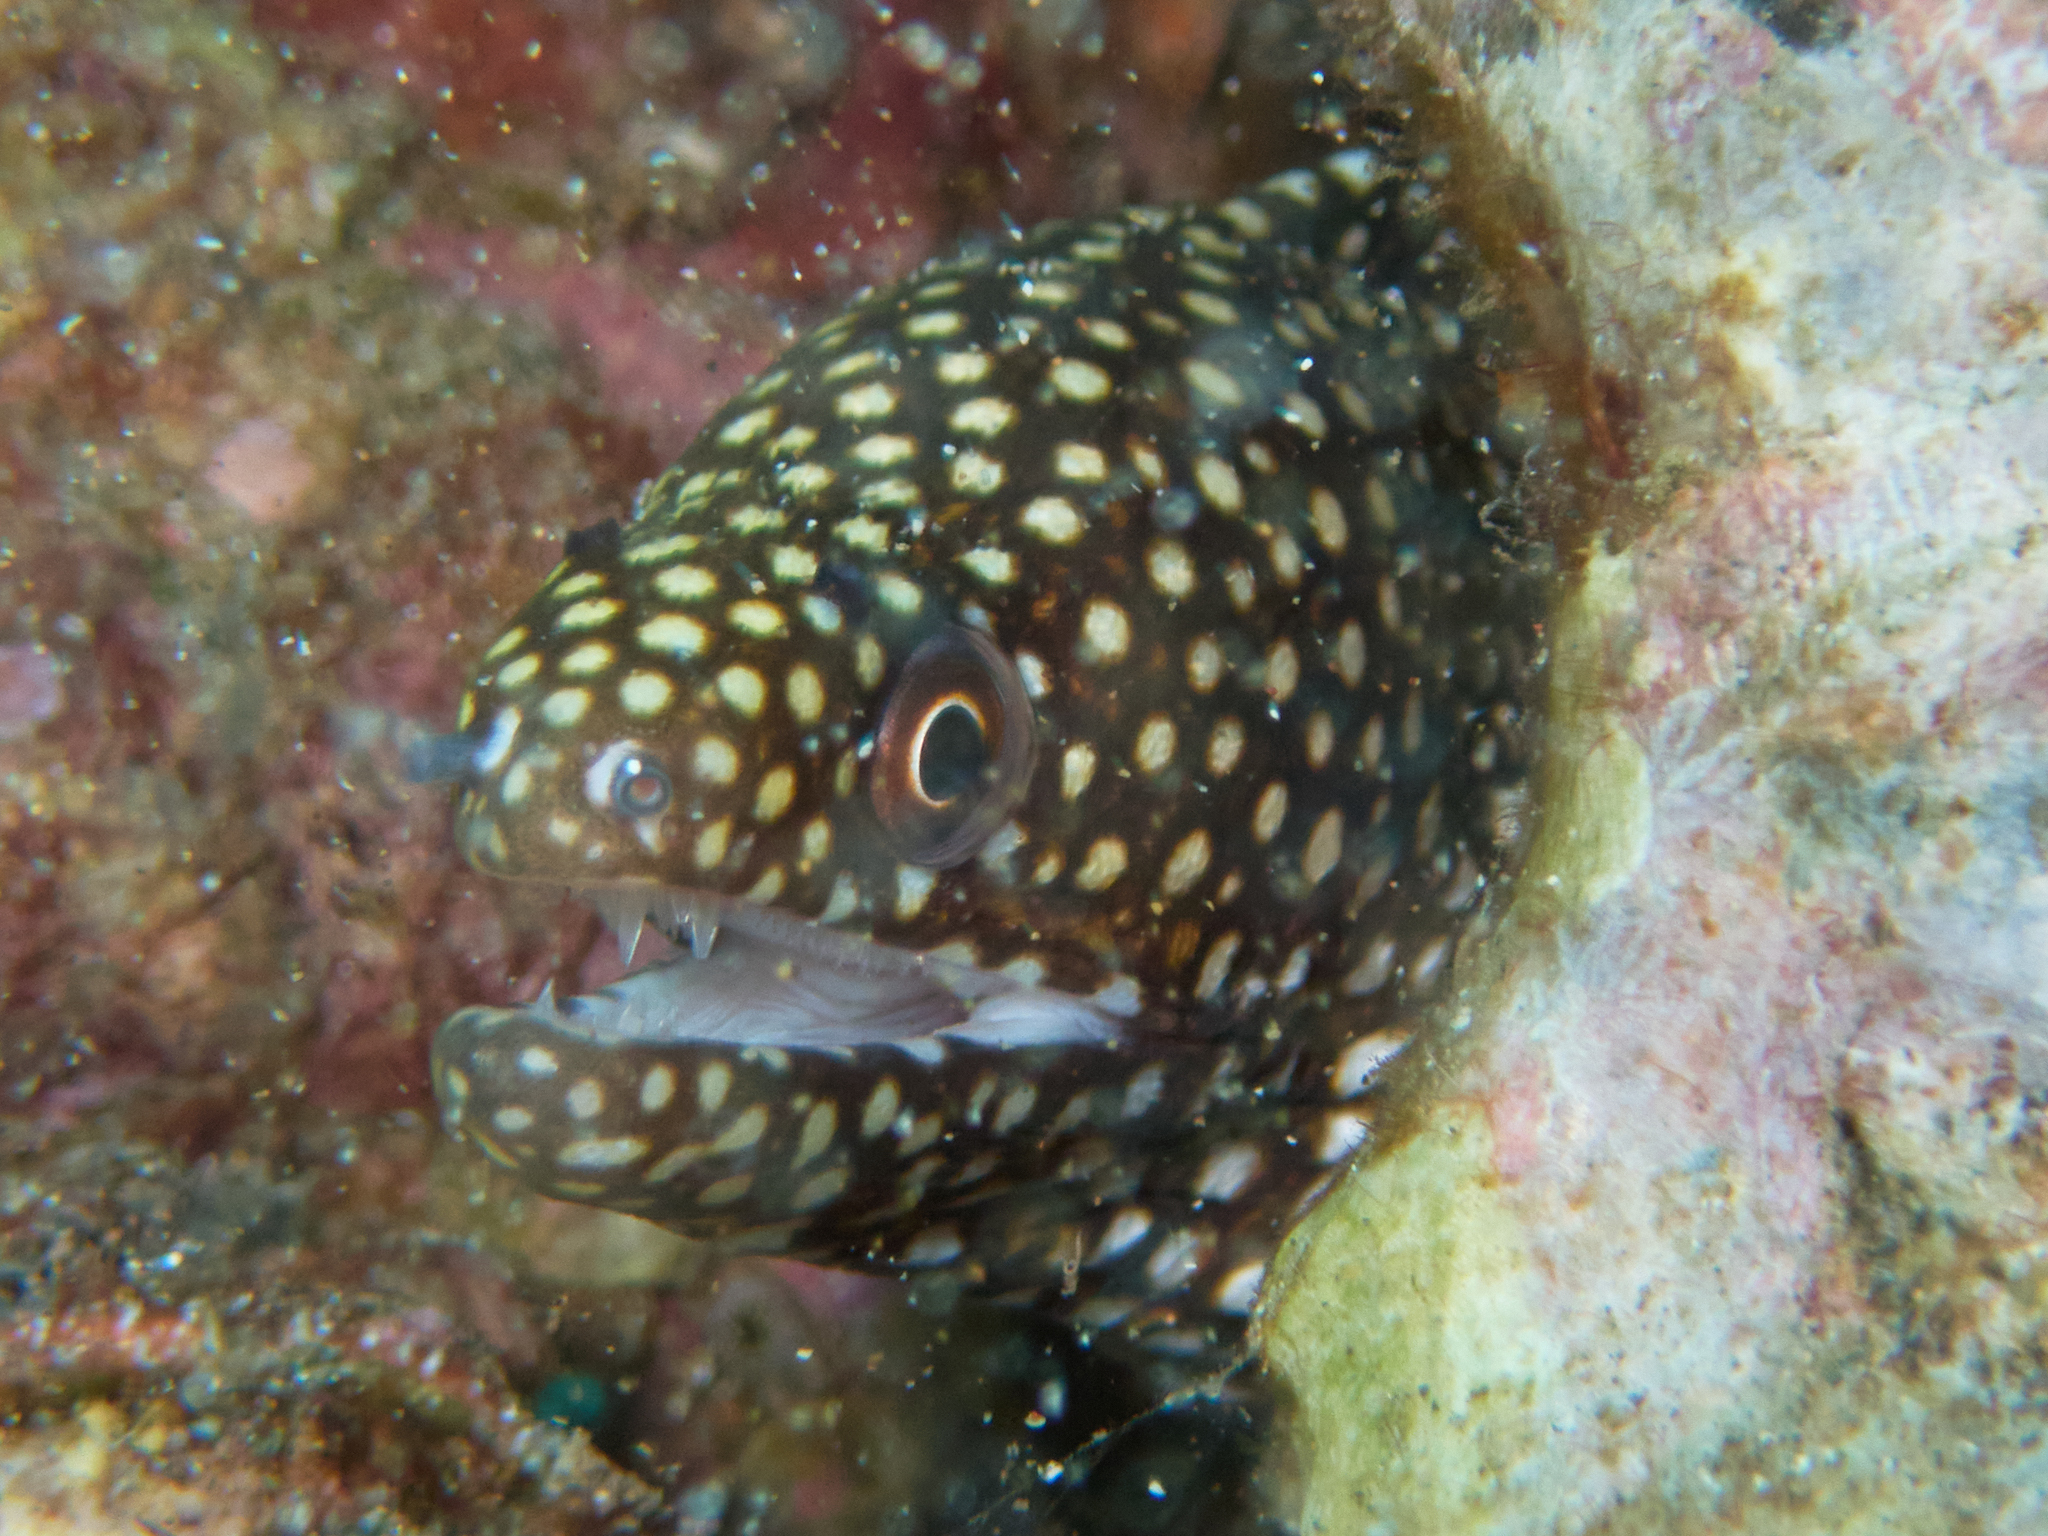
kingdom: Animalia
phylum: Chordata
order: Anguilliformes
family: Muraenidae
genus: Gymnothorax
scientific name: Gymnothorax meleagris
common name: Guineafowl moray
